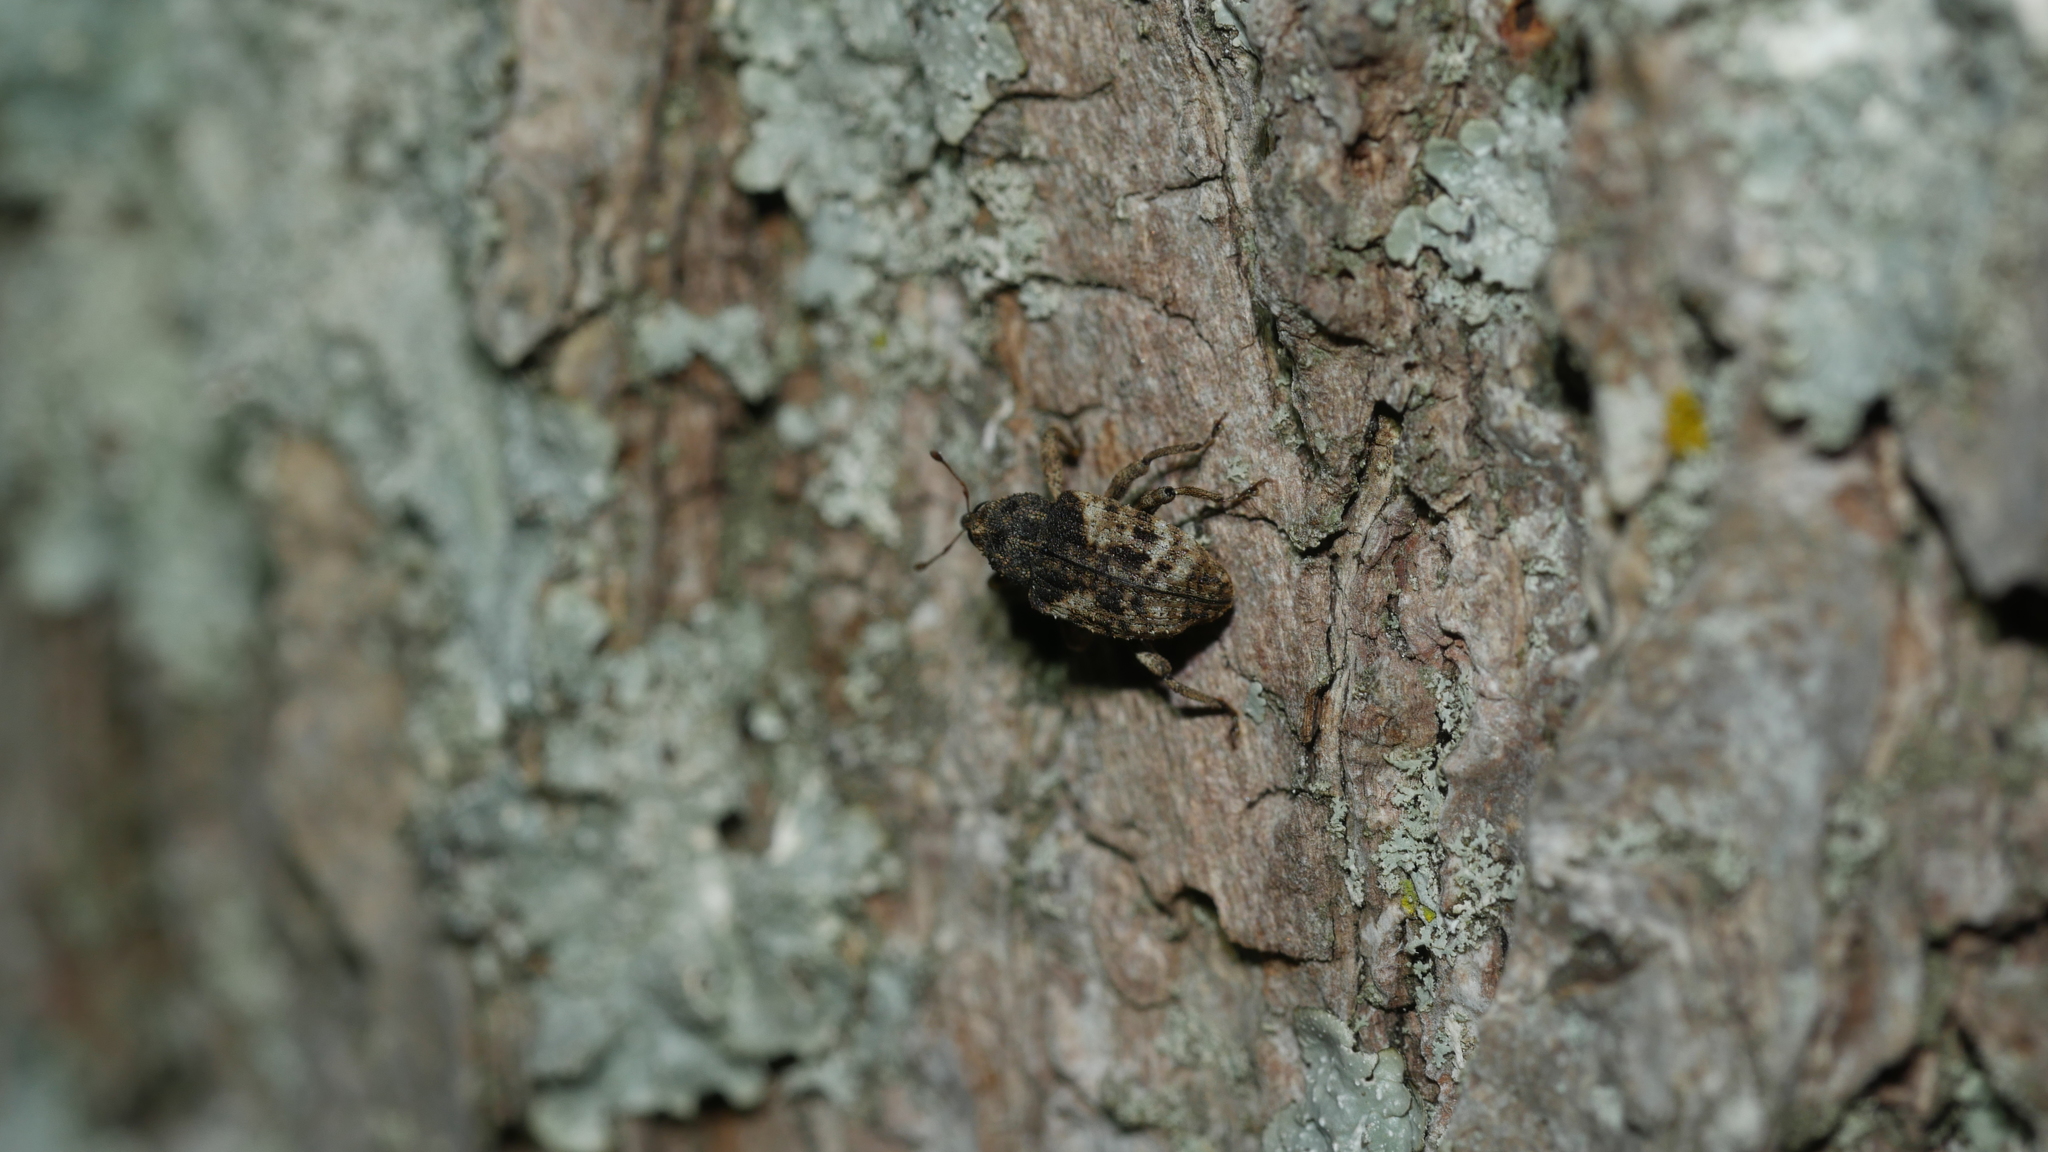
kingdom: Animalia
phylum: Arthropoda
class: Insecta
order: Coleoptera
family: Curculionidae
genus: Cryptorhynchus
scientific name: Cryptorhynchus fuscatus
